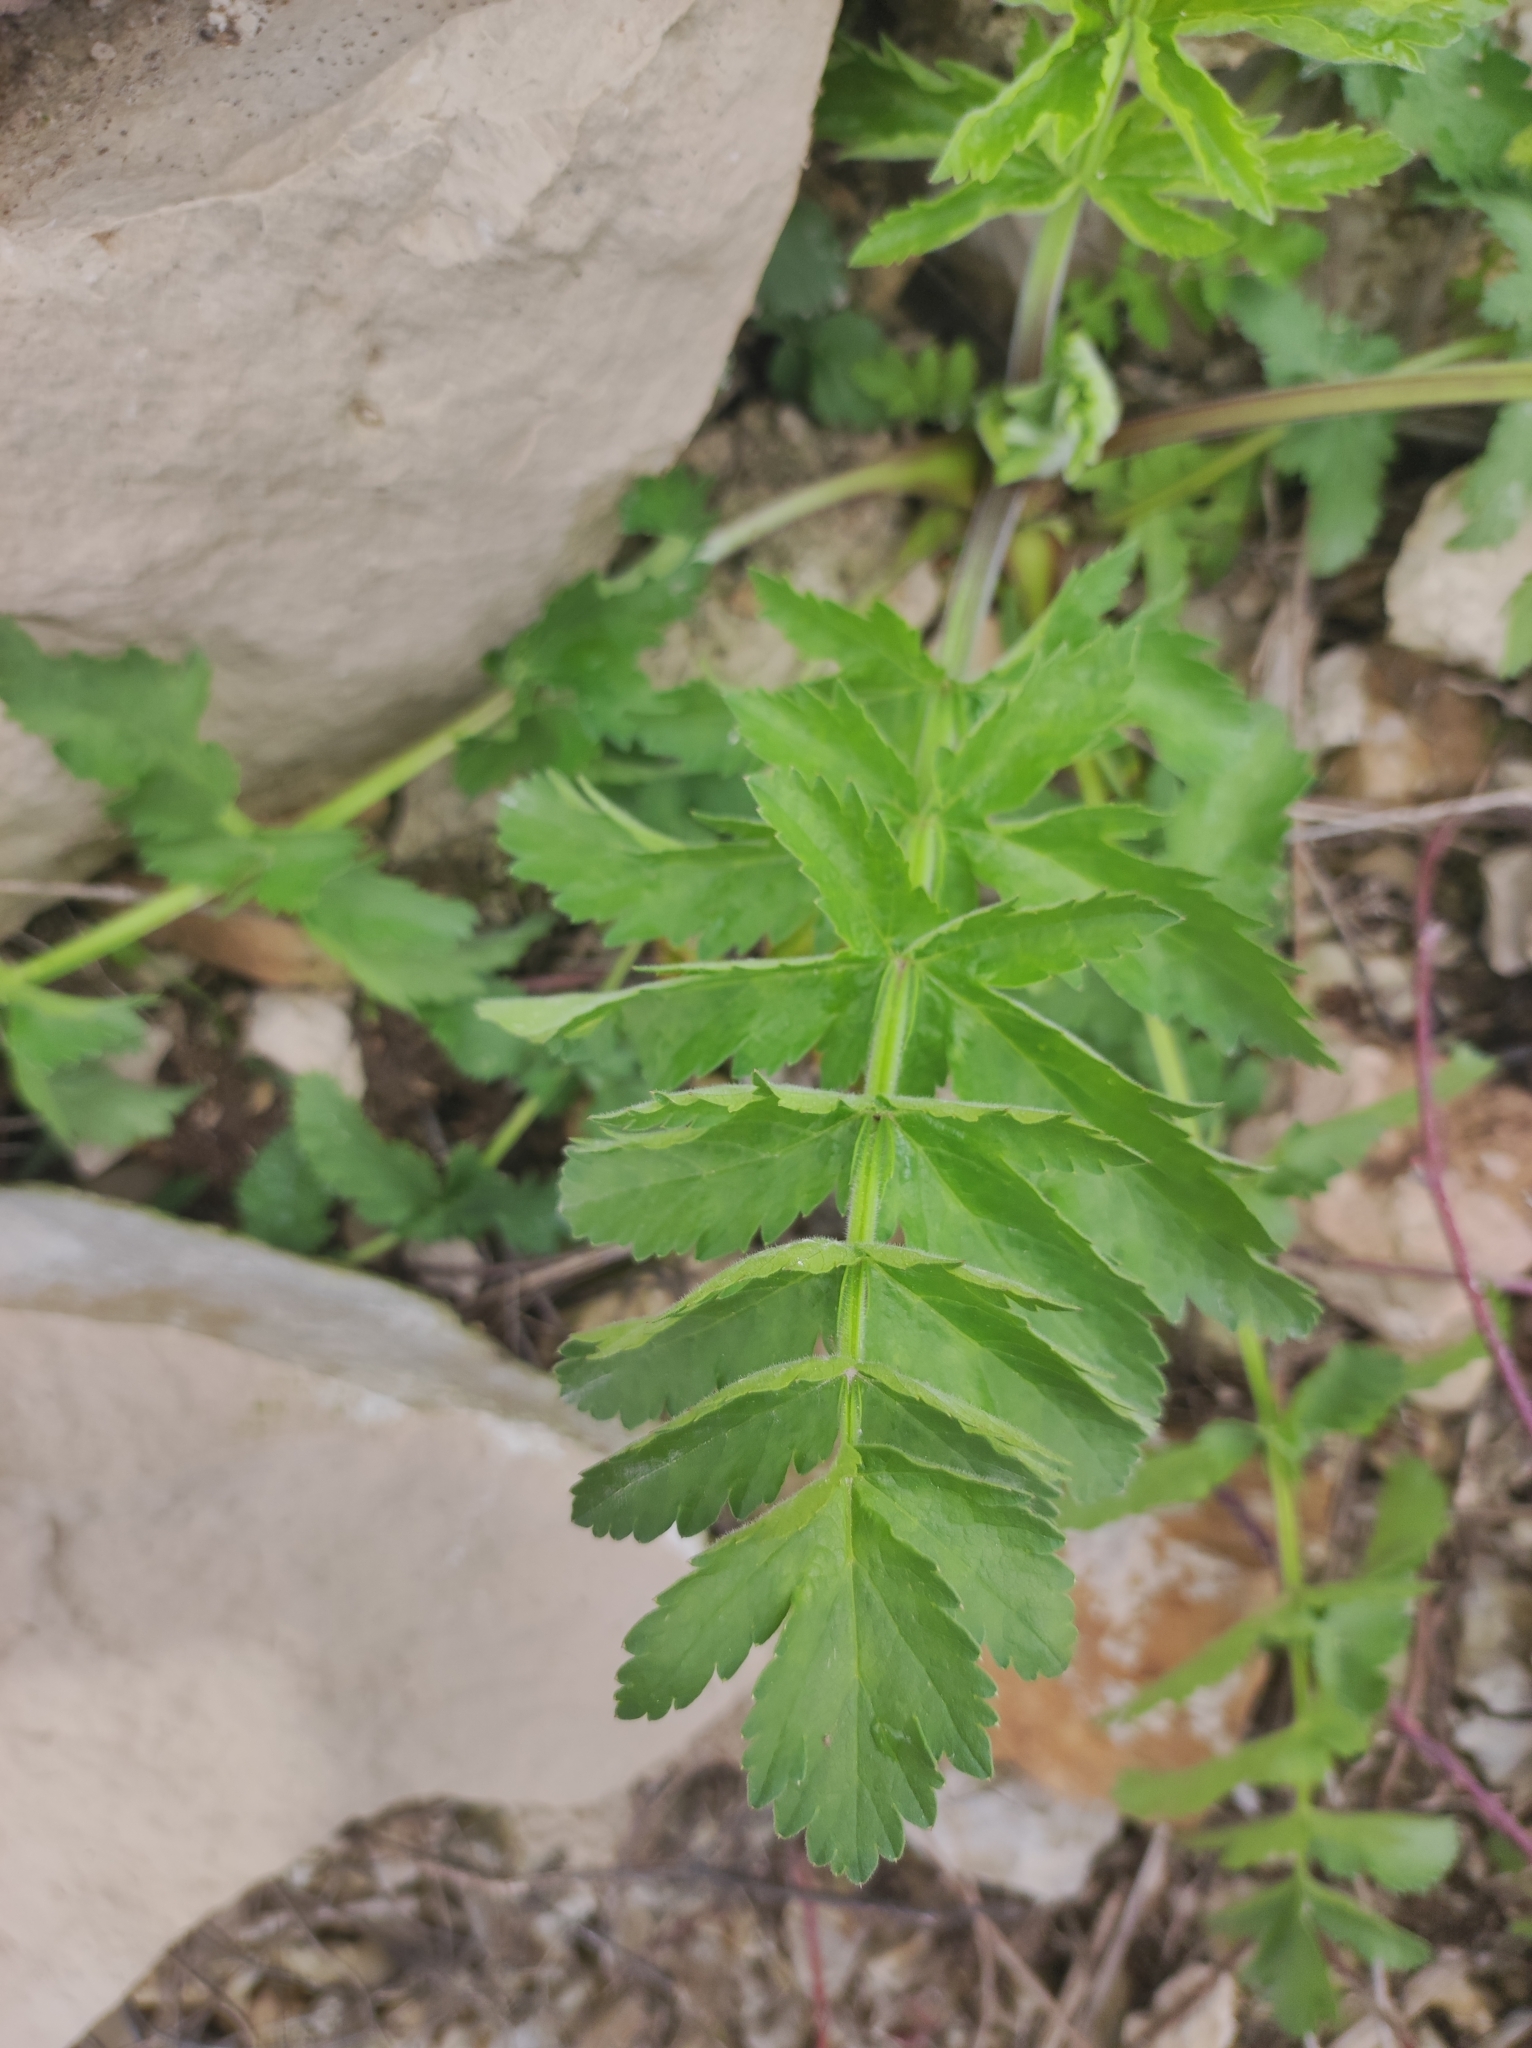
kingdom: Plantae
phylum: Tracheophyta
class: Magnoliopsida
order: Apiales
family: Apiaceae
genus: Pastinaca
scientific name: Pastinaca sativa
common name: Wild parsnip
